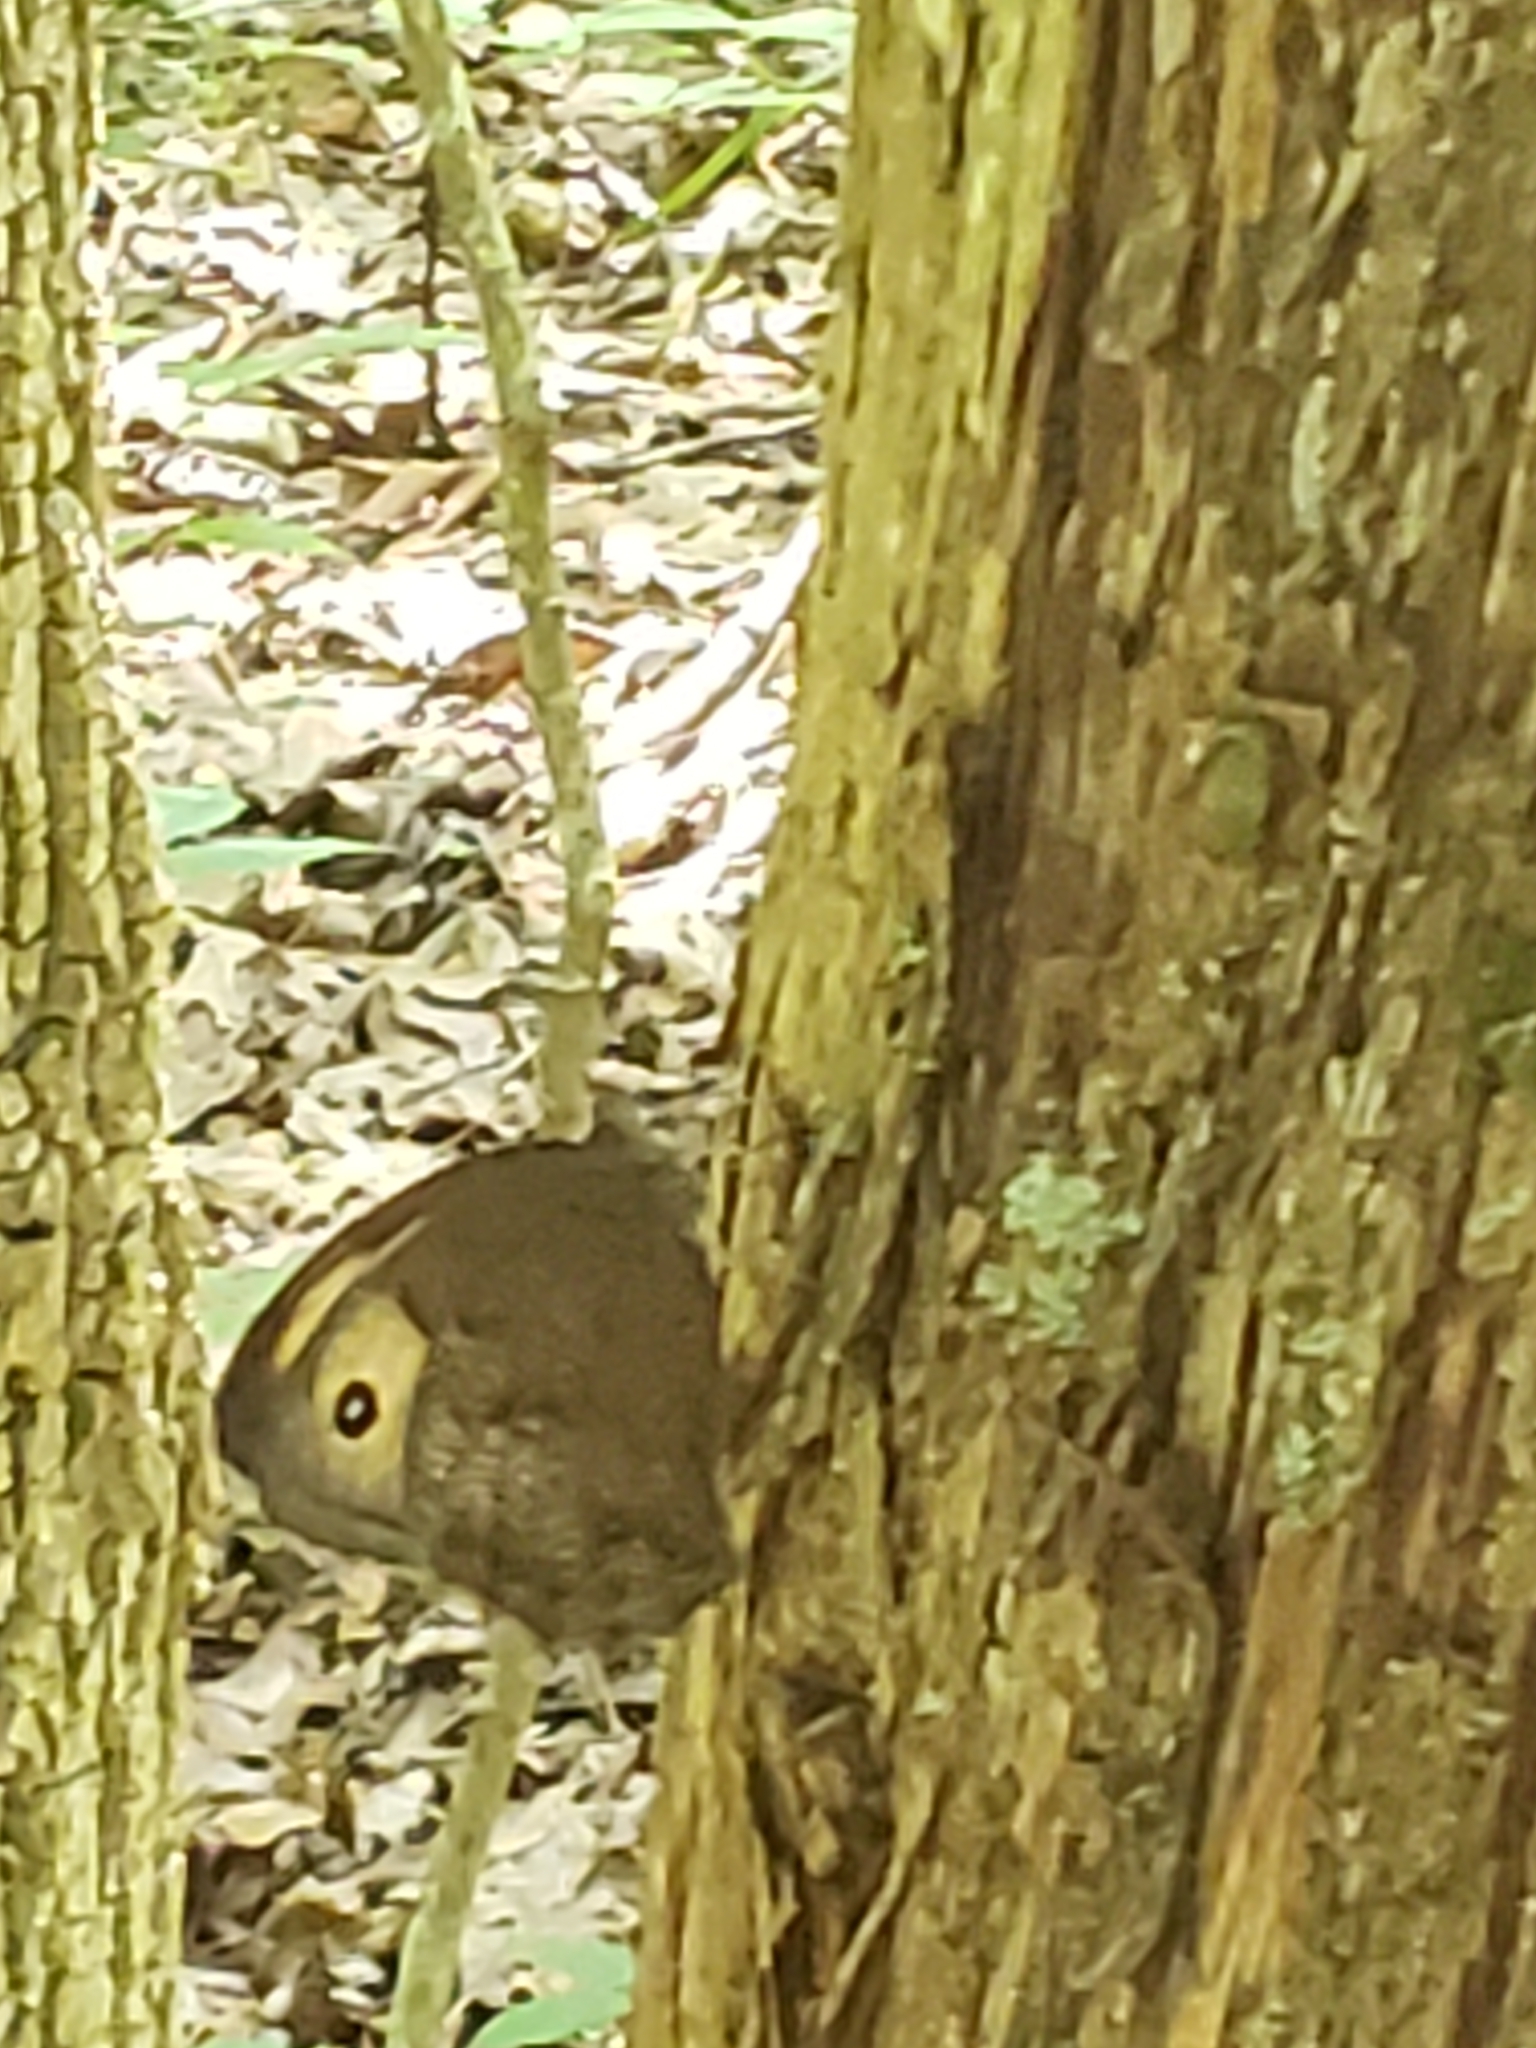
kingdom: Animalia
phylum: Arthropoda
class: Insecta
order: Lepidoptera
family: Nymphalidae
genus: Cercyonis
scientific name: Cercyonis pegala
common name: Common wood-nymph
